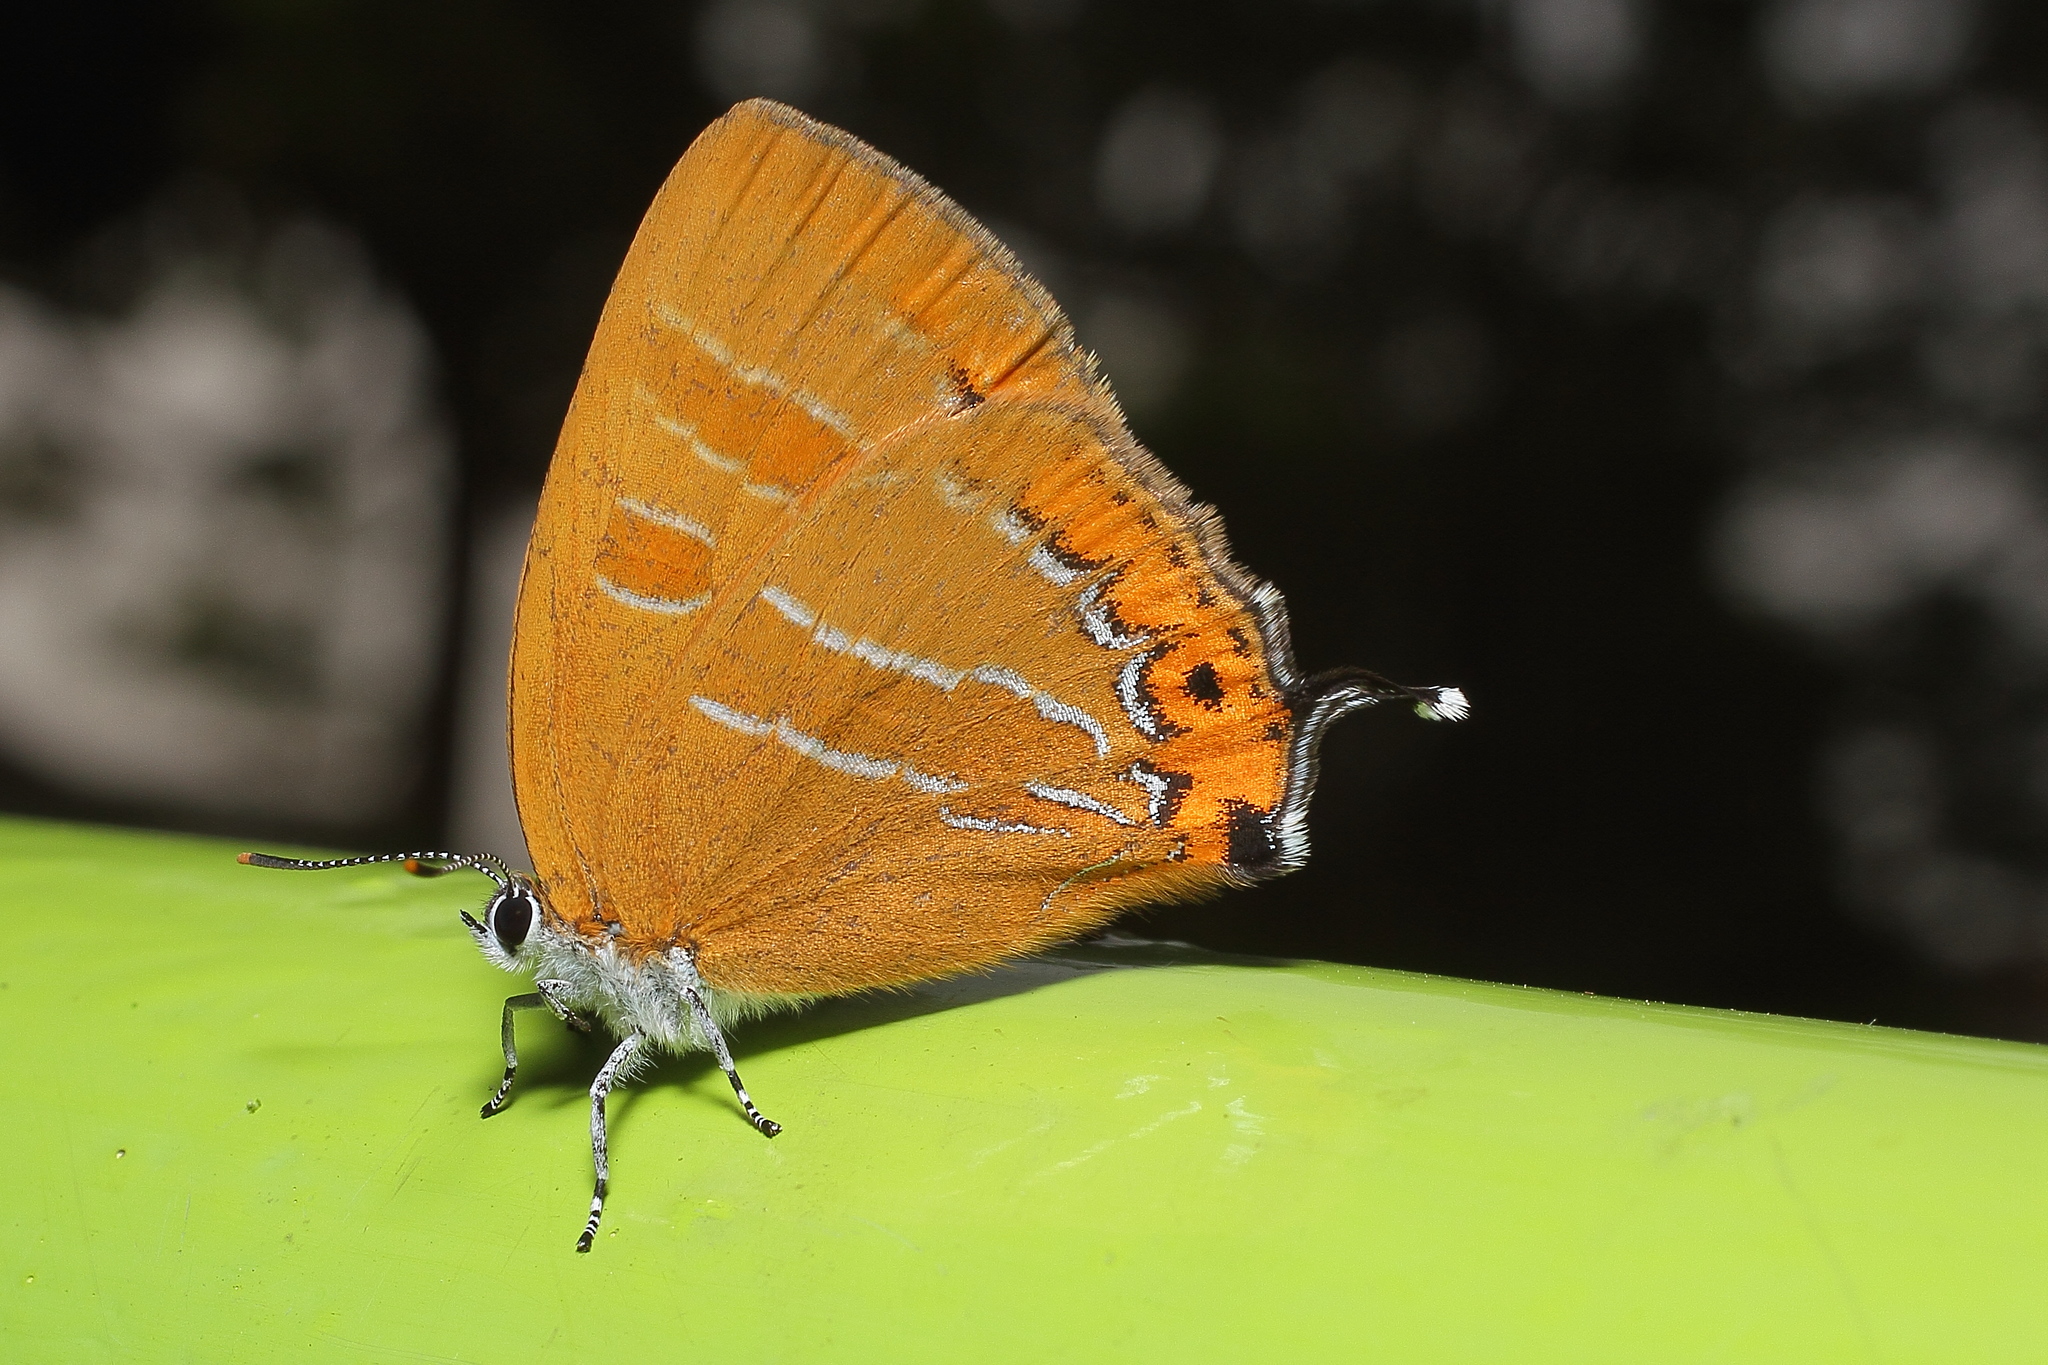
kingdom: Animalia
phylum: Arthropoda
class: Insecta
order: Lepidoptera
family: Lycaenidae
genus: Japonica
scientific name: Japonica lutea
